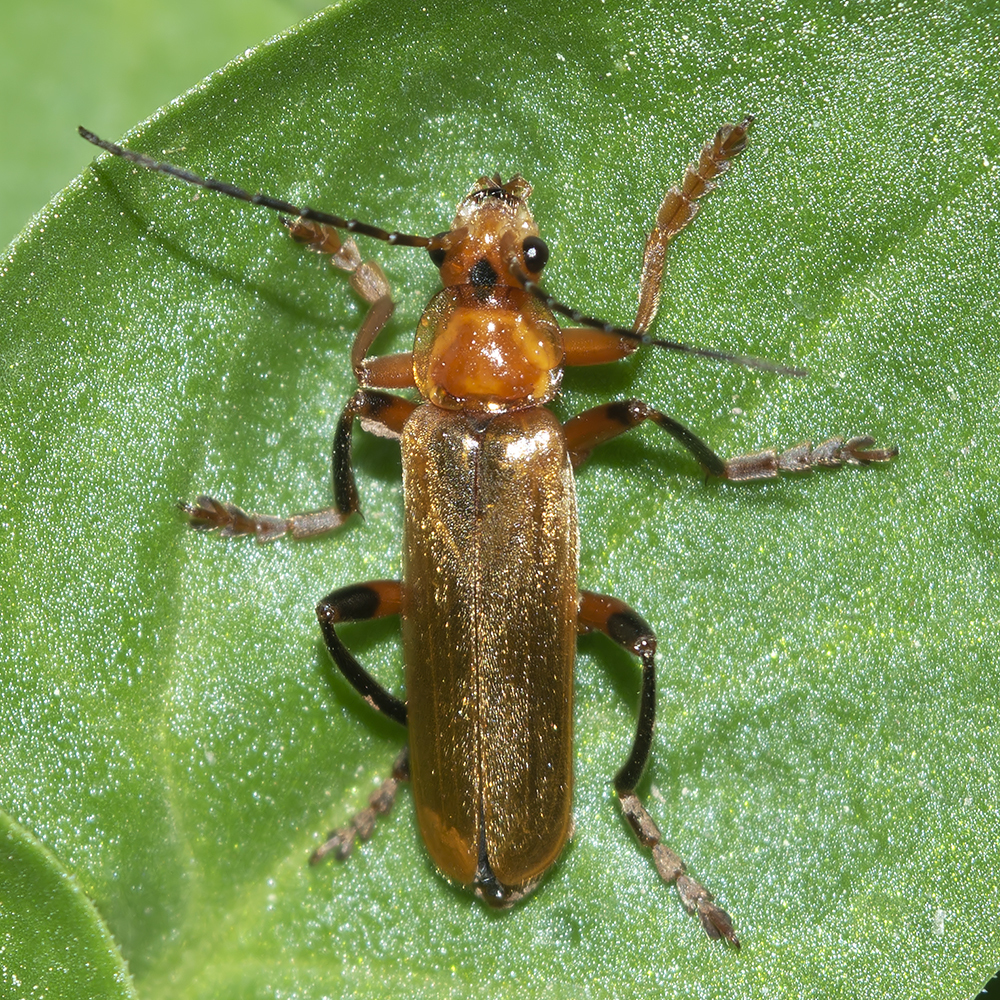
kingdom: Animalia
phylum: Arthropoda
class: Insecta
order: Coleoptera
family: Cantharidae
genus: Cantharis
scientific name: Cantharis livida
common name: Livid soldier beetle
